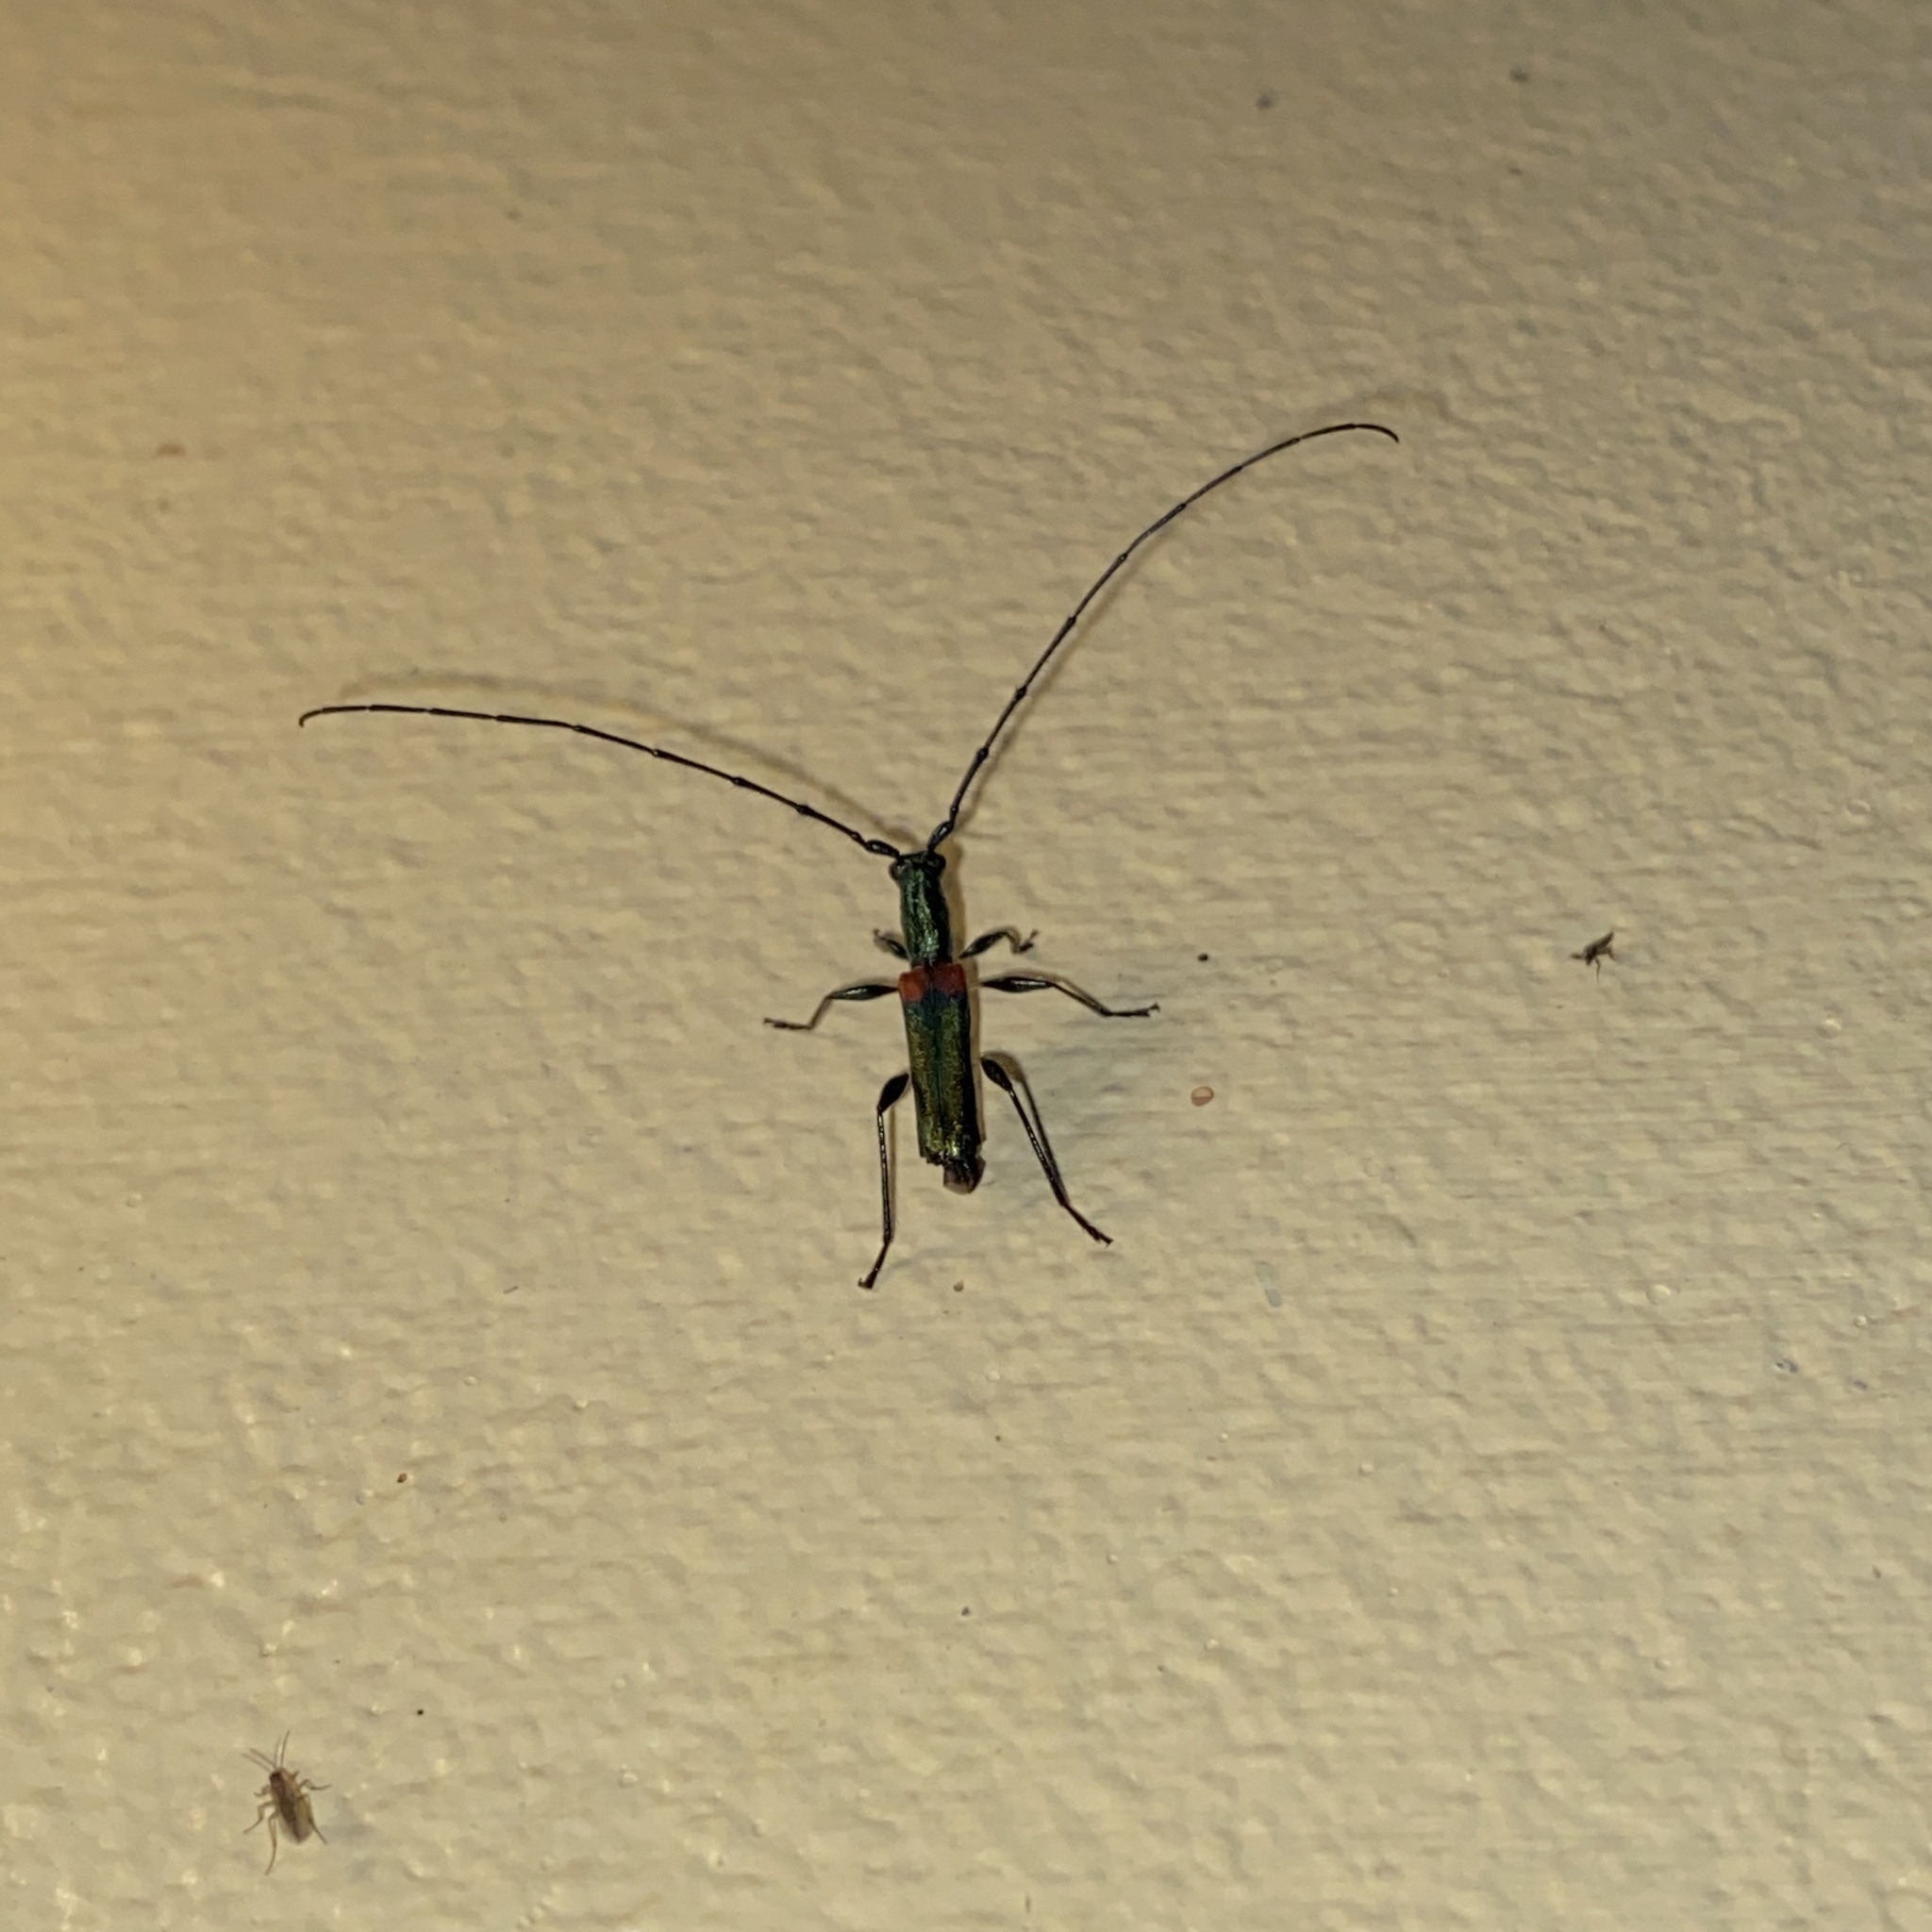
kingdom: Animalia
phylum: Arthropoda
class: Insecta
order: Coleoptera
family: Cerambycidae
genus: Lissozodes
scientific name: Lissozodes basalis
